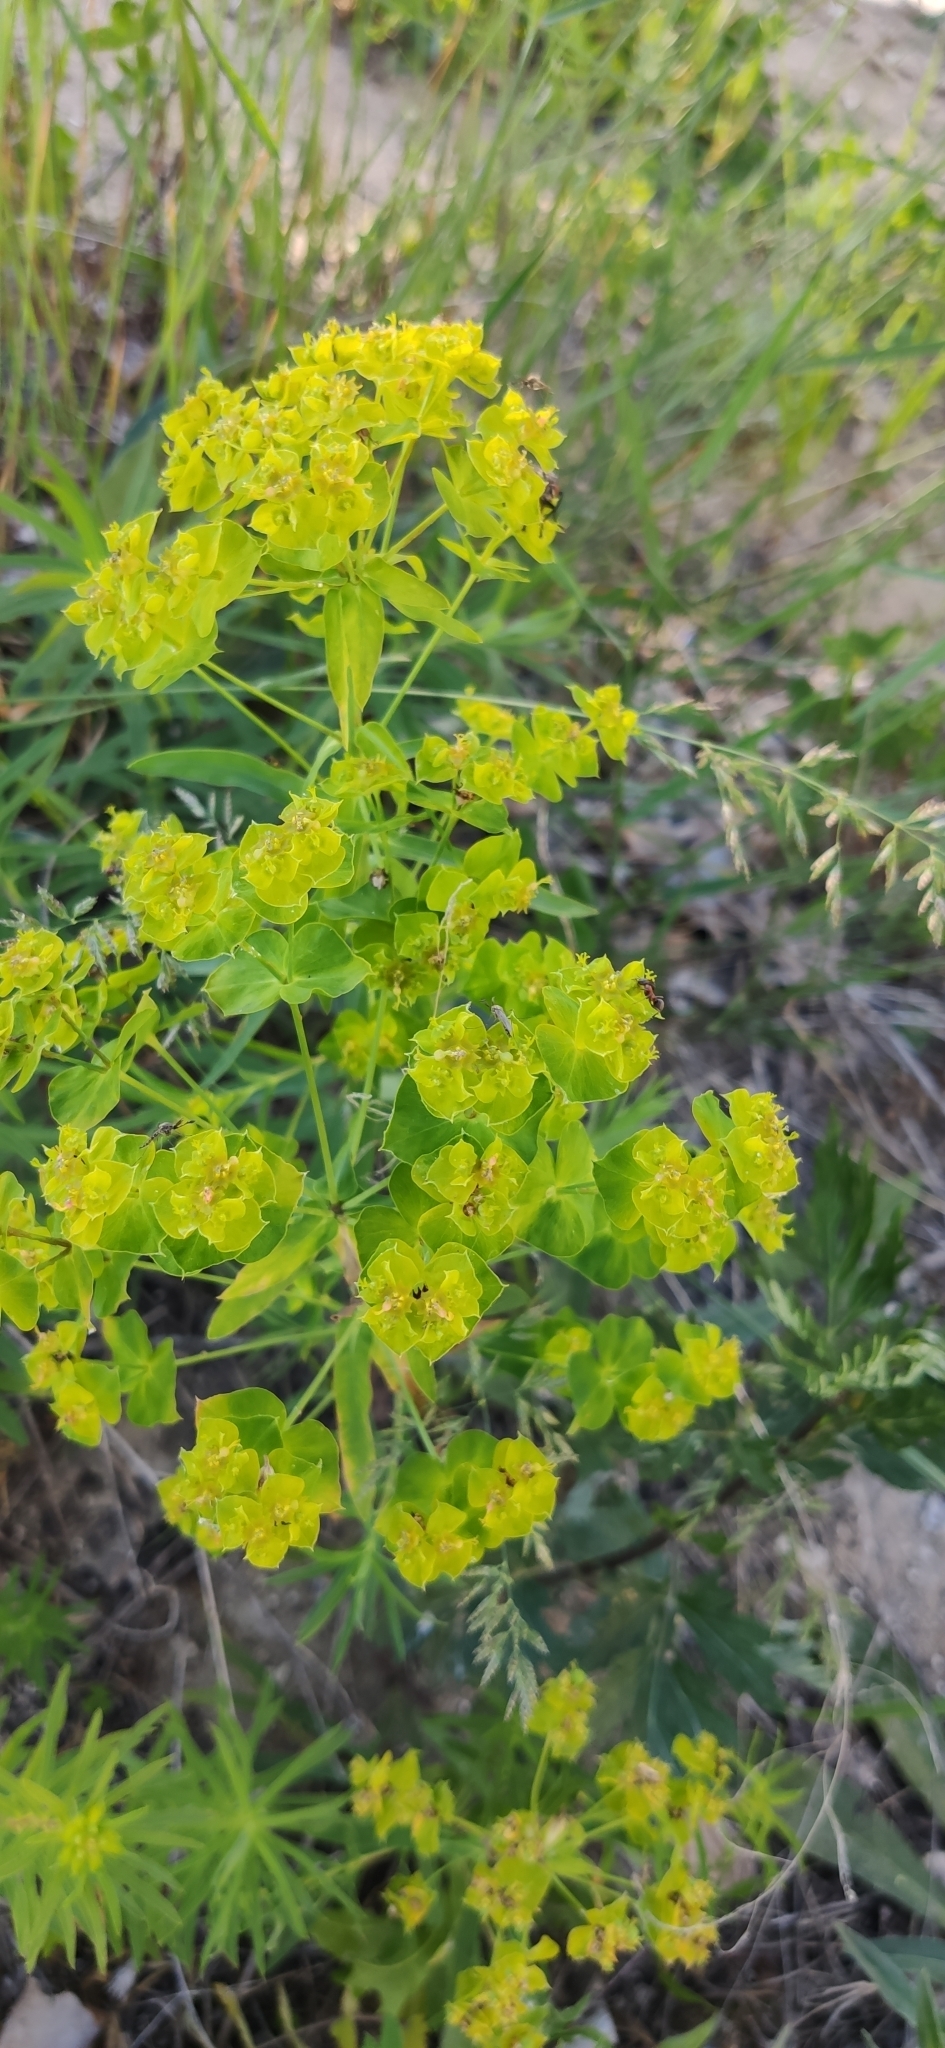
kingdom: Plantae
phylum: Tracheophyta
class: Magnoliopsida
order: Malpighiales
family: Euphorbiaceae
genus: Euphorbia
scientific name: Euphorbia virgata
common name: Leafy spurge
